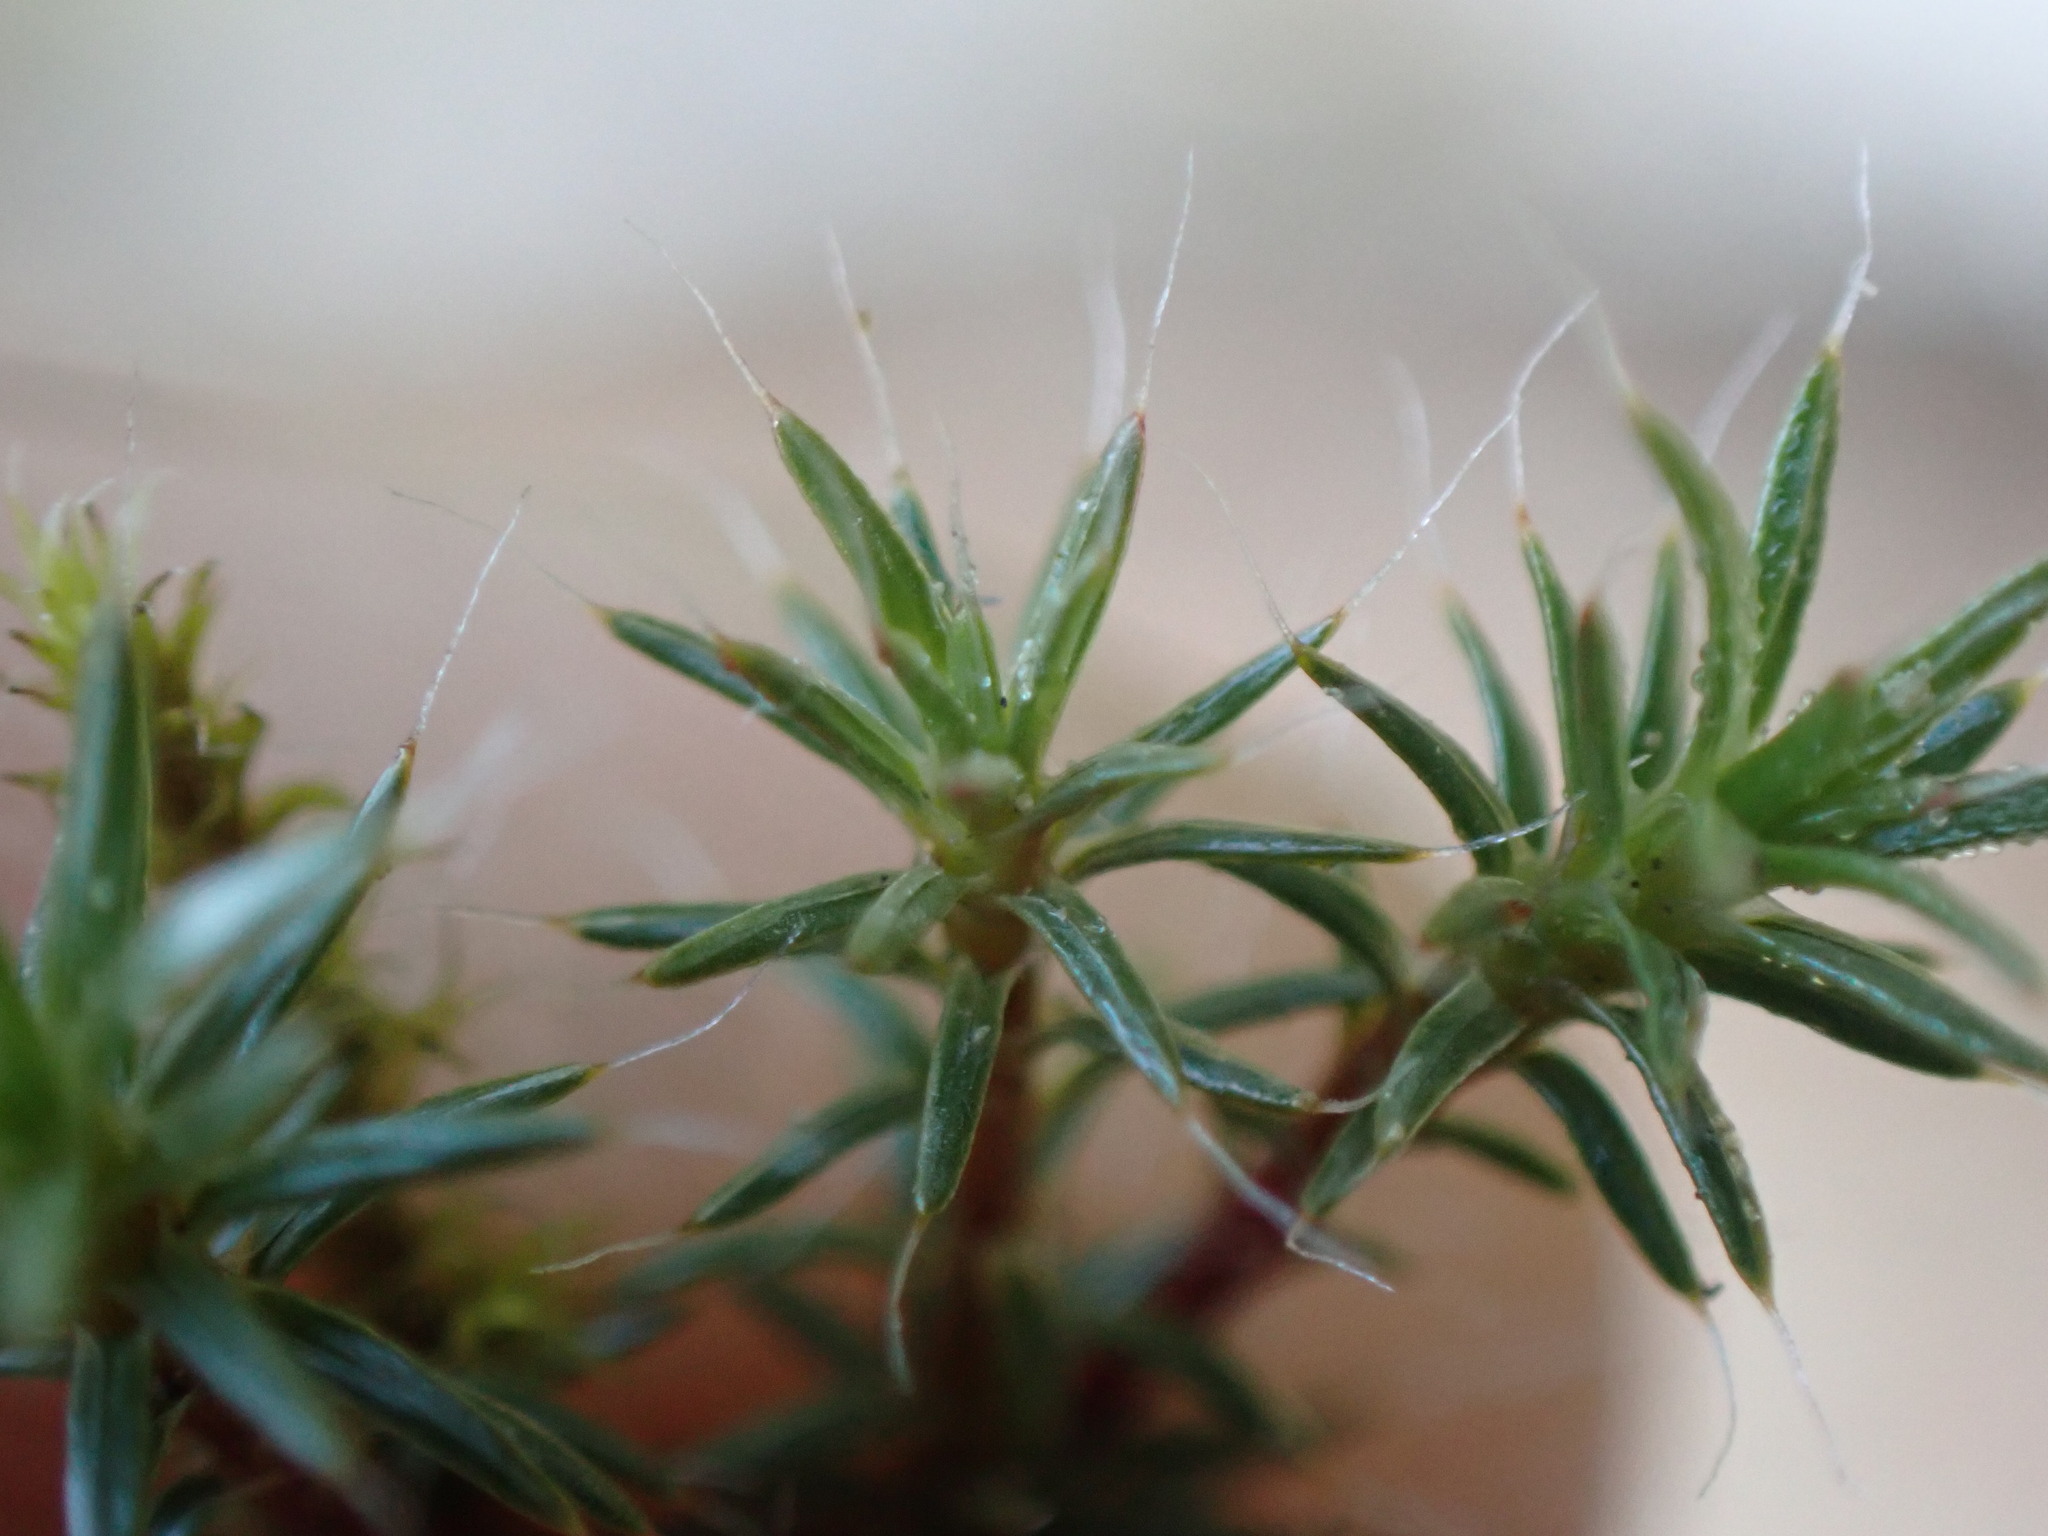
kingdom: Plantae
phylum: Bryophyta
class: Polytrichopsida
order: Polytrichales
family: Polytrichaceae
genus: Polytrichum
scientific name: Polytrichum piliferum
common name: Bristly haircap
